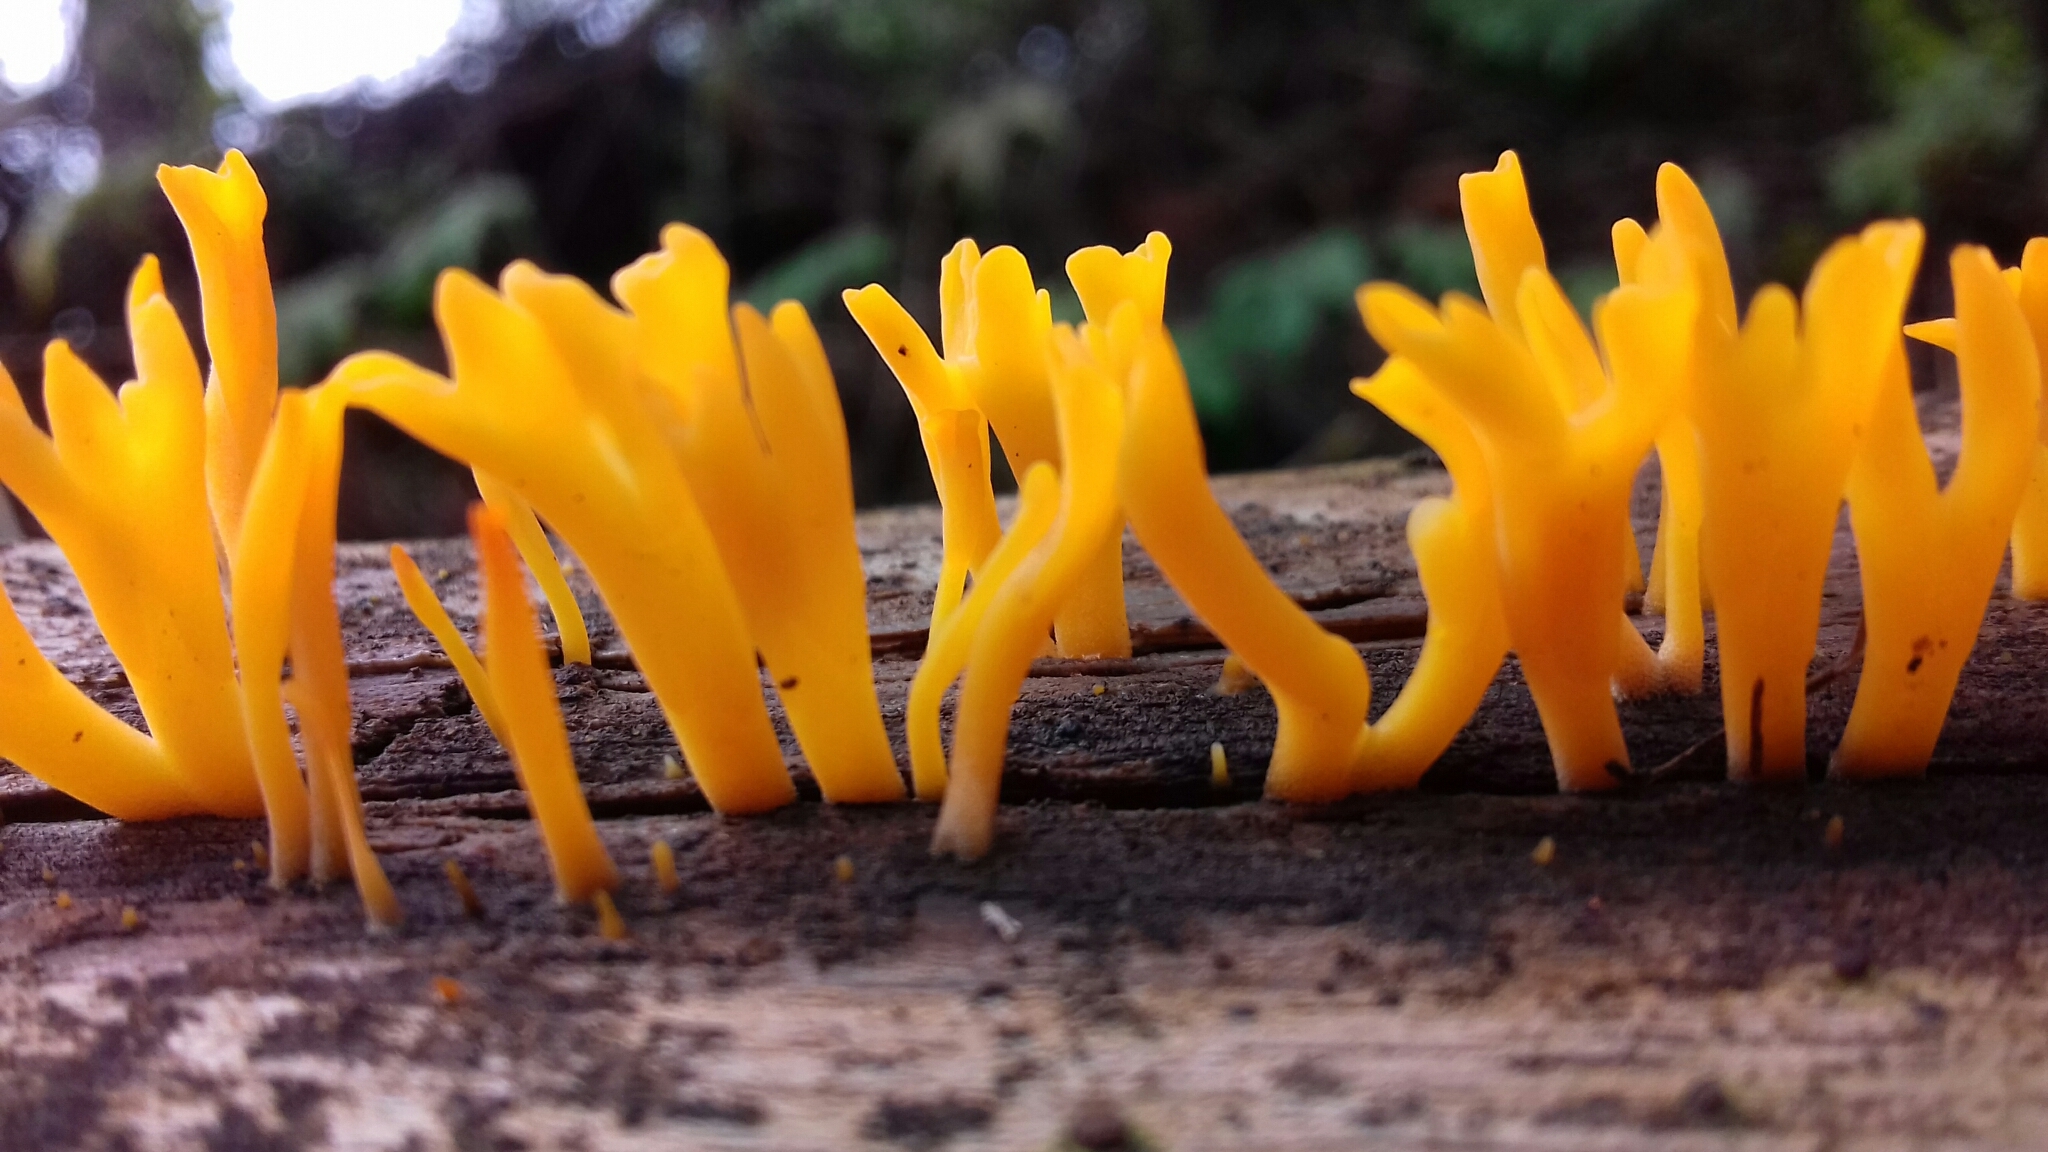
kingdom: Fungi
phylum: Basidiomycota
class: Dacrymycetes
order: Dacrymycetales
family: Dacrymycetaceae
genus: Dacrymyces
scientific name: Dacrymyces spathularius
